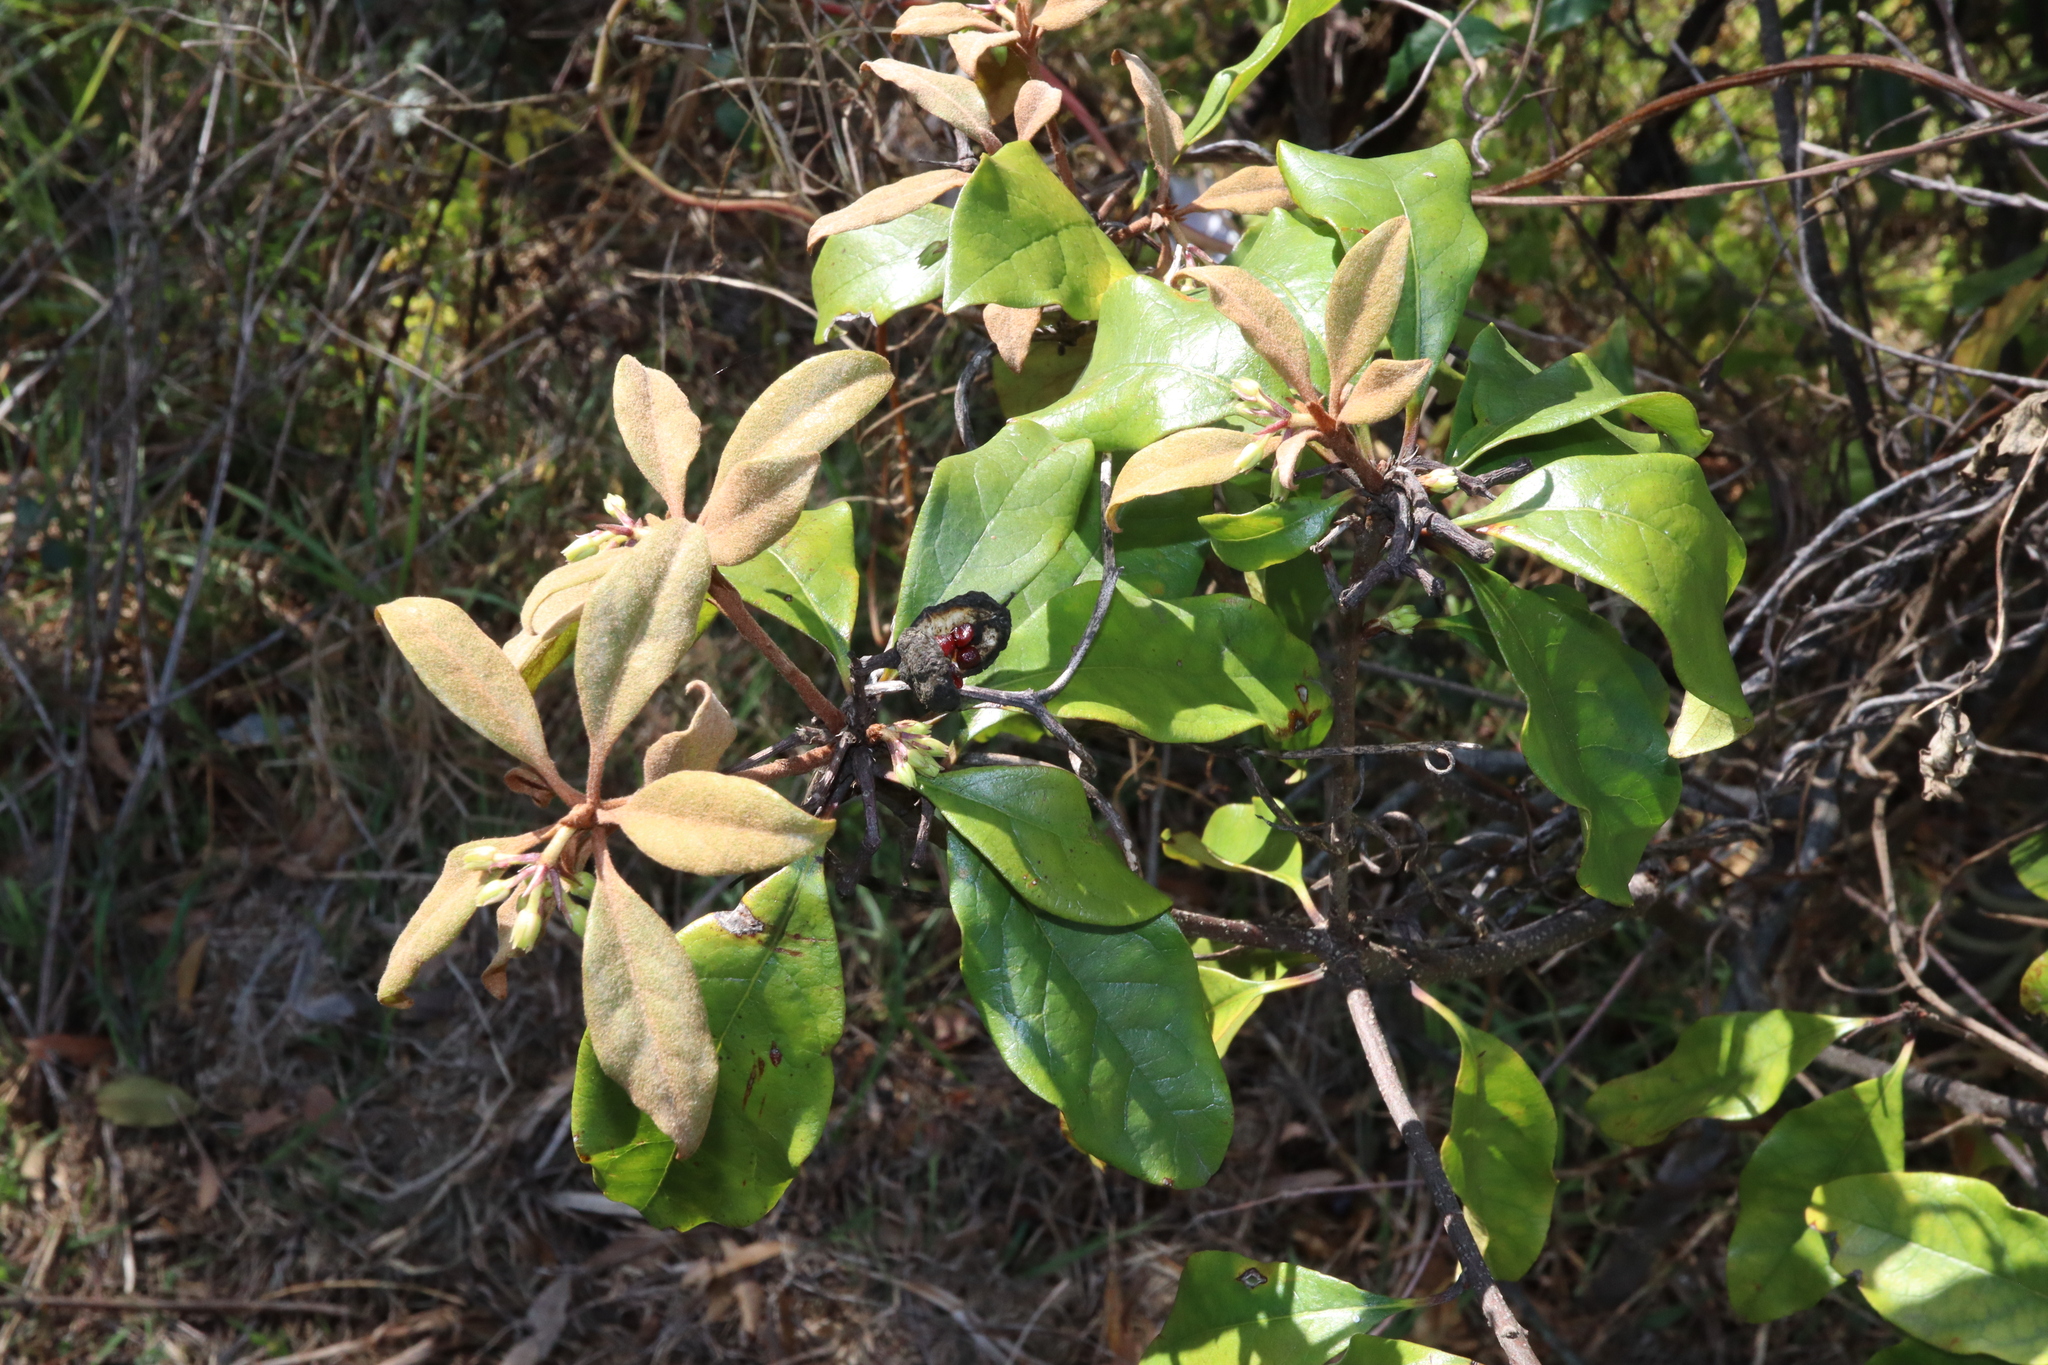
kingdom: Plantae
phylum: Tracheophyta
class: Magnoliopsida
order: Apiales
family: Pittosporaceae
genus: Pittosporum
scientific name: Pittosporum revolutum
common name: Brisbane-laurel
